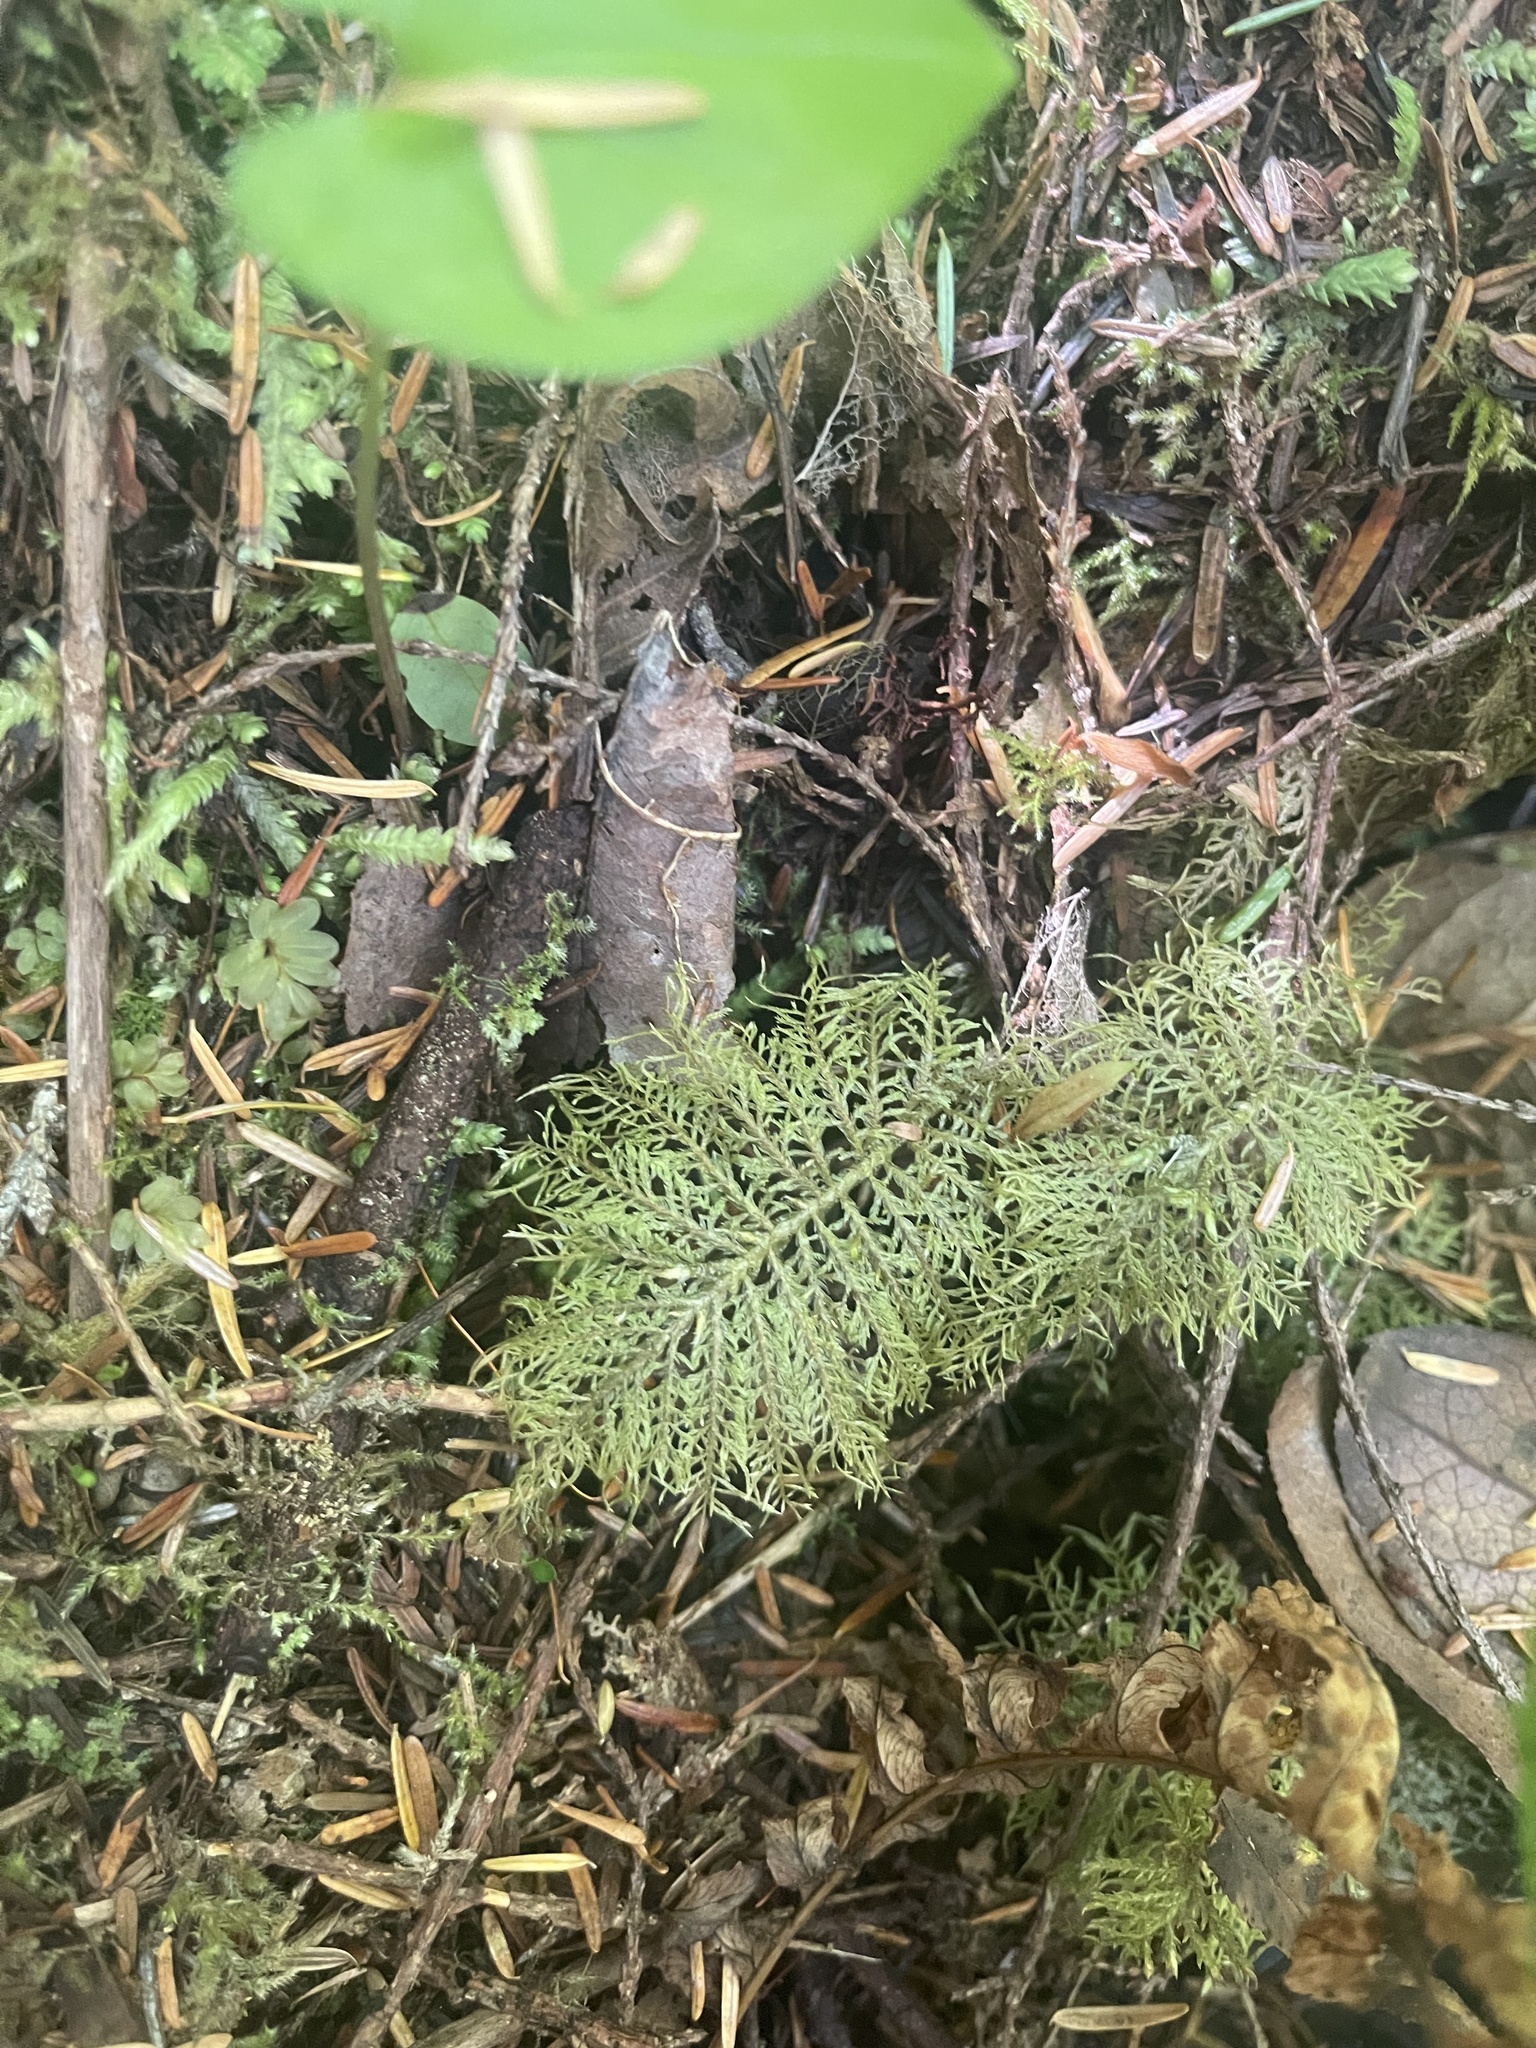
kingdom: Plantae
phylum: Bryophyta
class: Bryopsida
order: Hypnales
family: Hylocomiaceae
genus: Hylocomium
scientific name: Hylocomium splendens
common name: Stairstep moss
